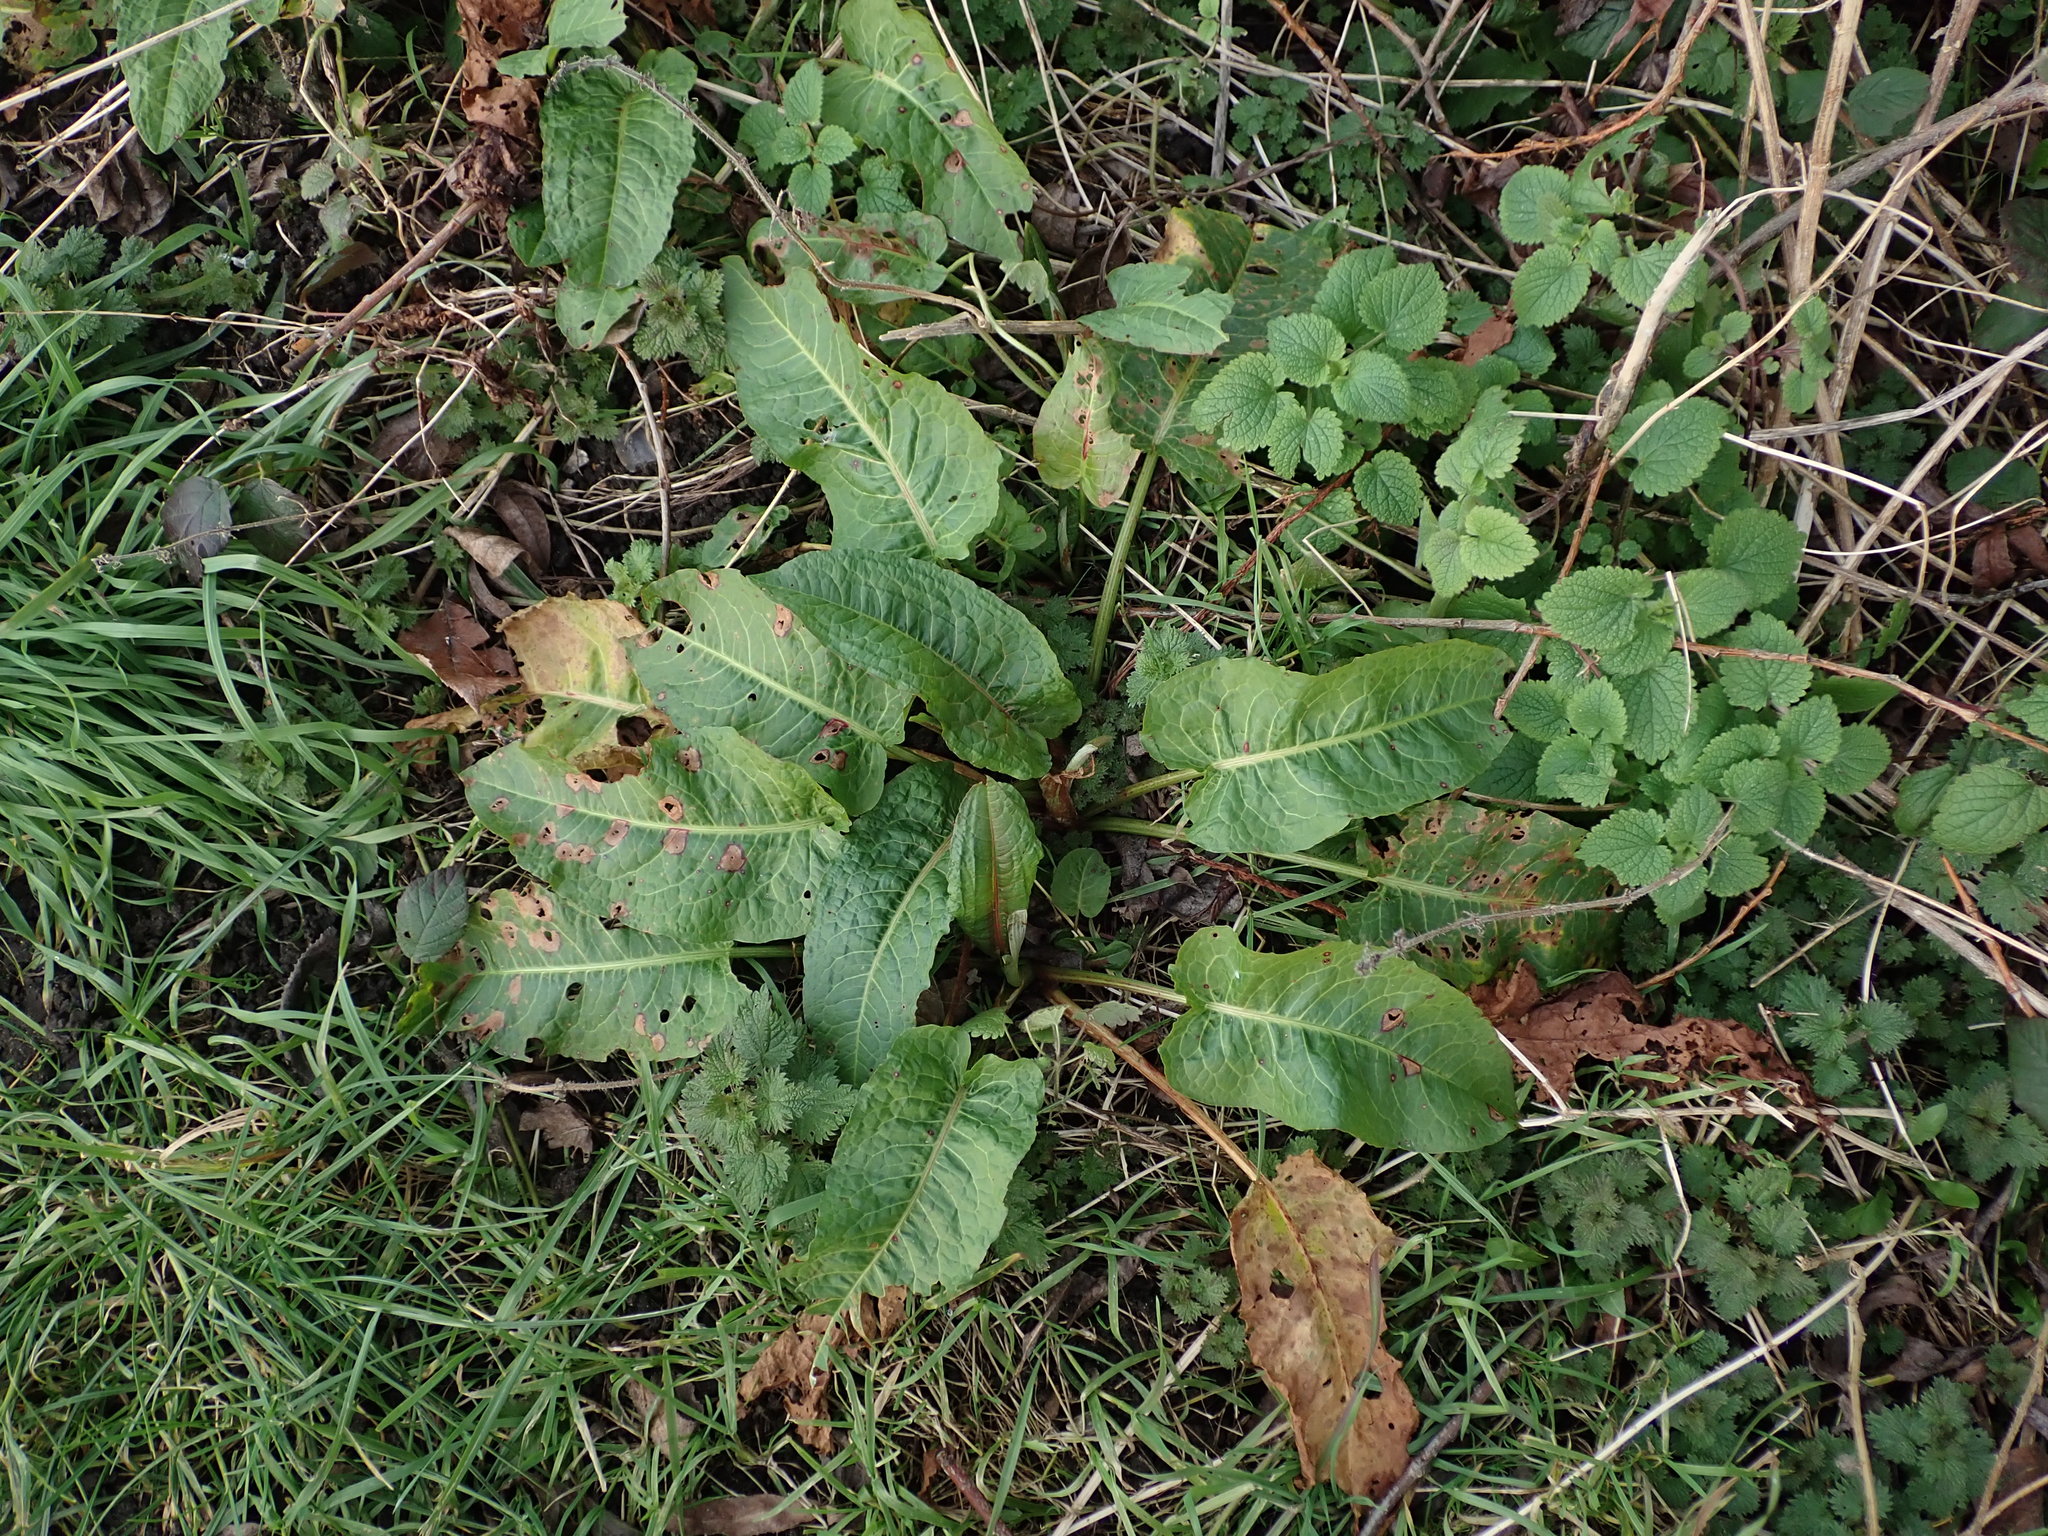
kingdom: Plantae
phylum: Tracheophyta
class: Magnoliopsida
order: Caryophyllales
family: Polygonaceae
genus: Rumex
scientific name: Rumex obtusifolius
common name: Bitter dock
